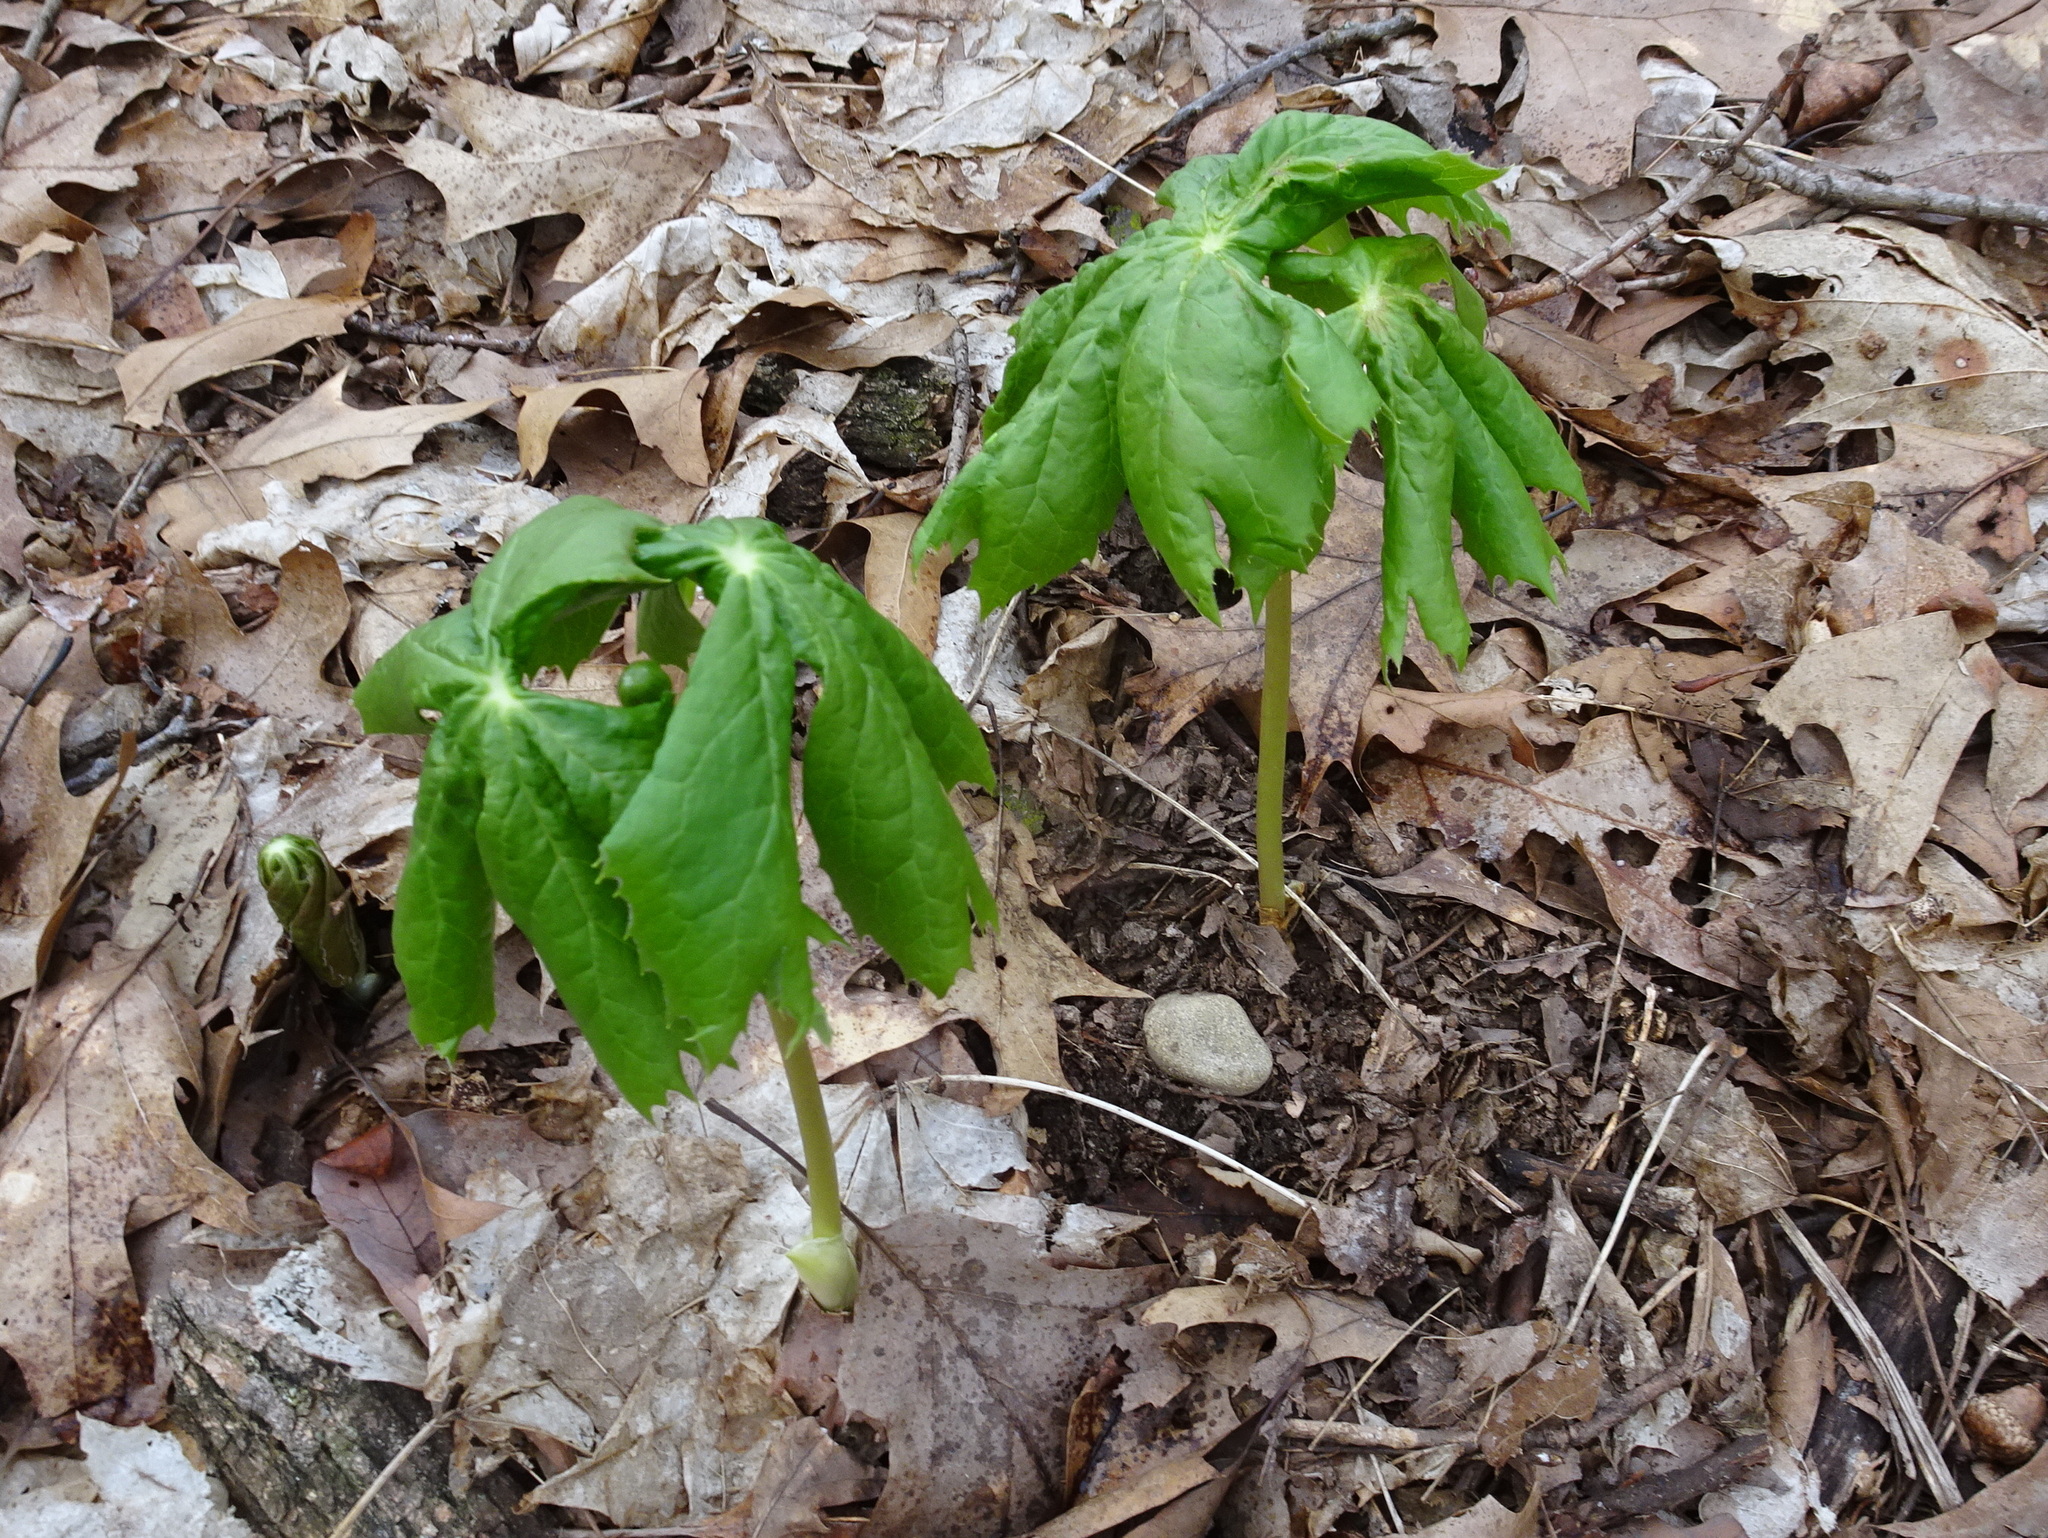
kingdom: Plantae
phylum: Tracheophyta
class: Magnoliopsida
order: Ranunculales
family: Berberidaceae
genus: Podophyllum
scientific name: Podophyllum peltatum
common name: Wild mandrake
